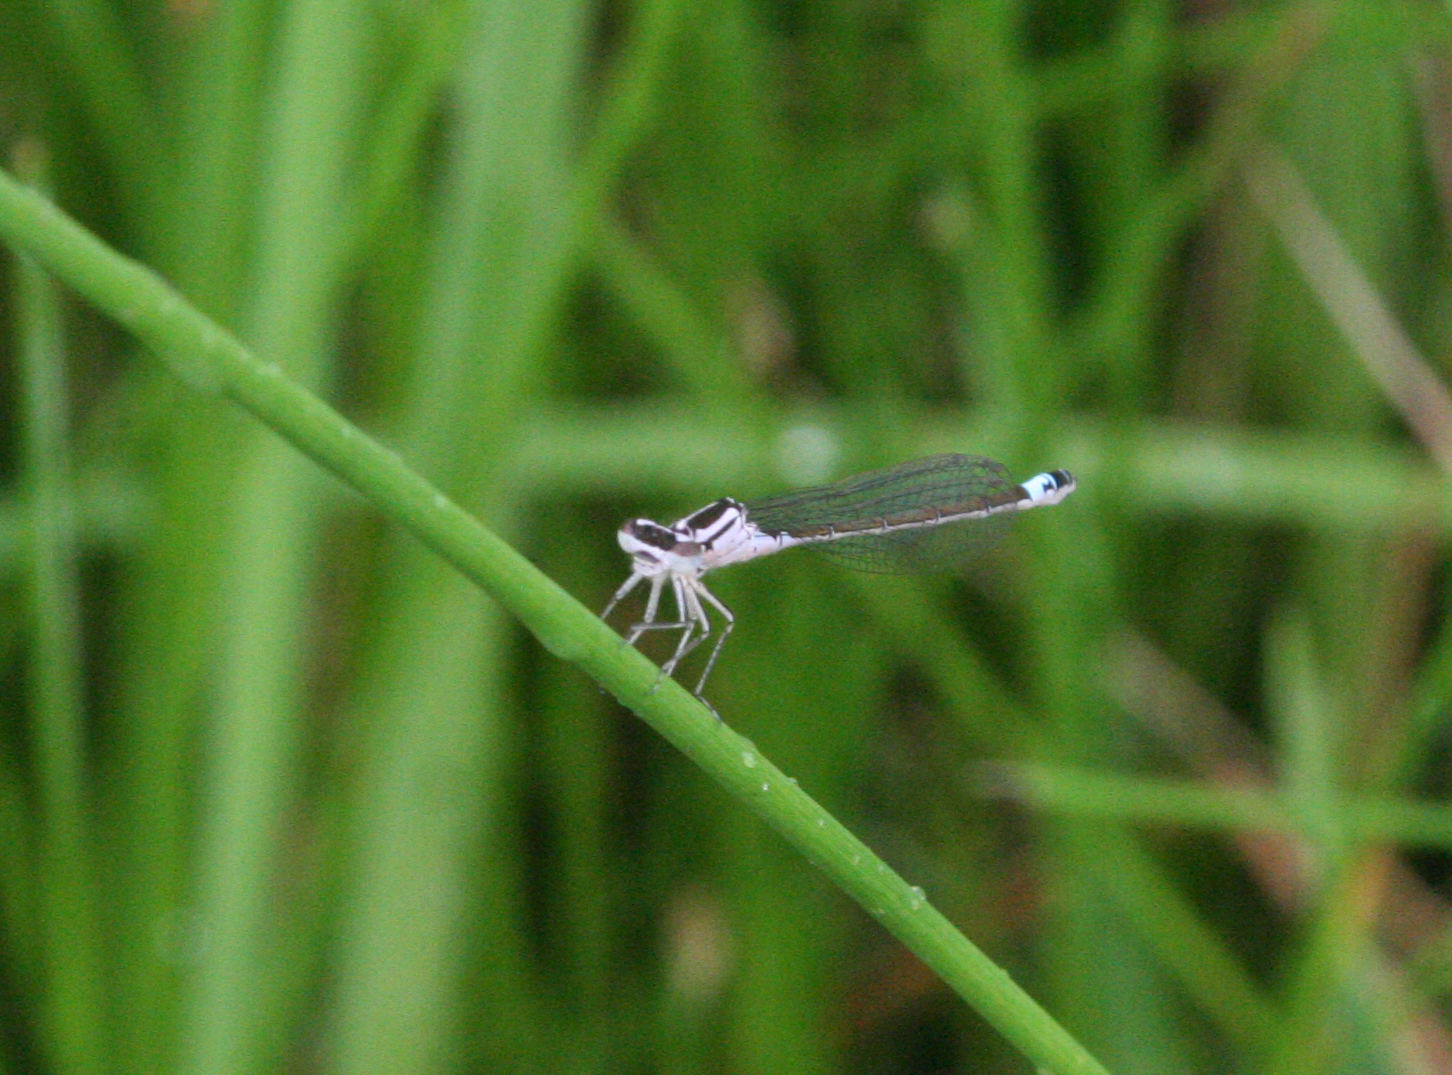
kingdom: Animalia
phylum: Arthropoda
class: Insecta
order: Odonata
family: Coenagrionidae
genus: Coenagrion
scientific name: Coenagrion armatum
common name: Dark bluet
